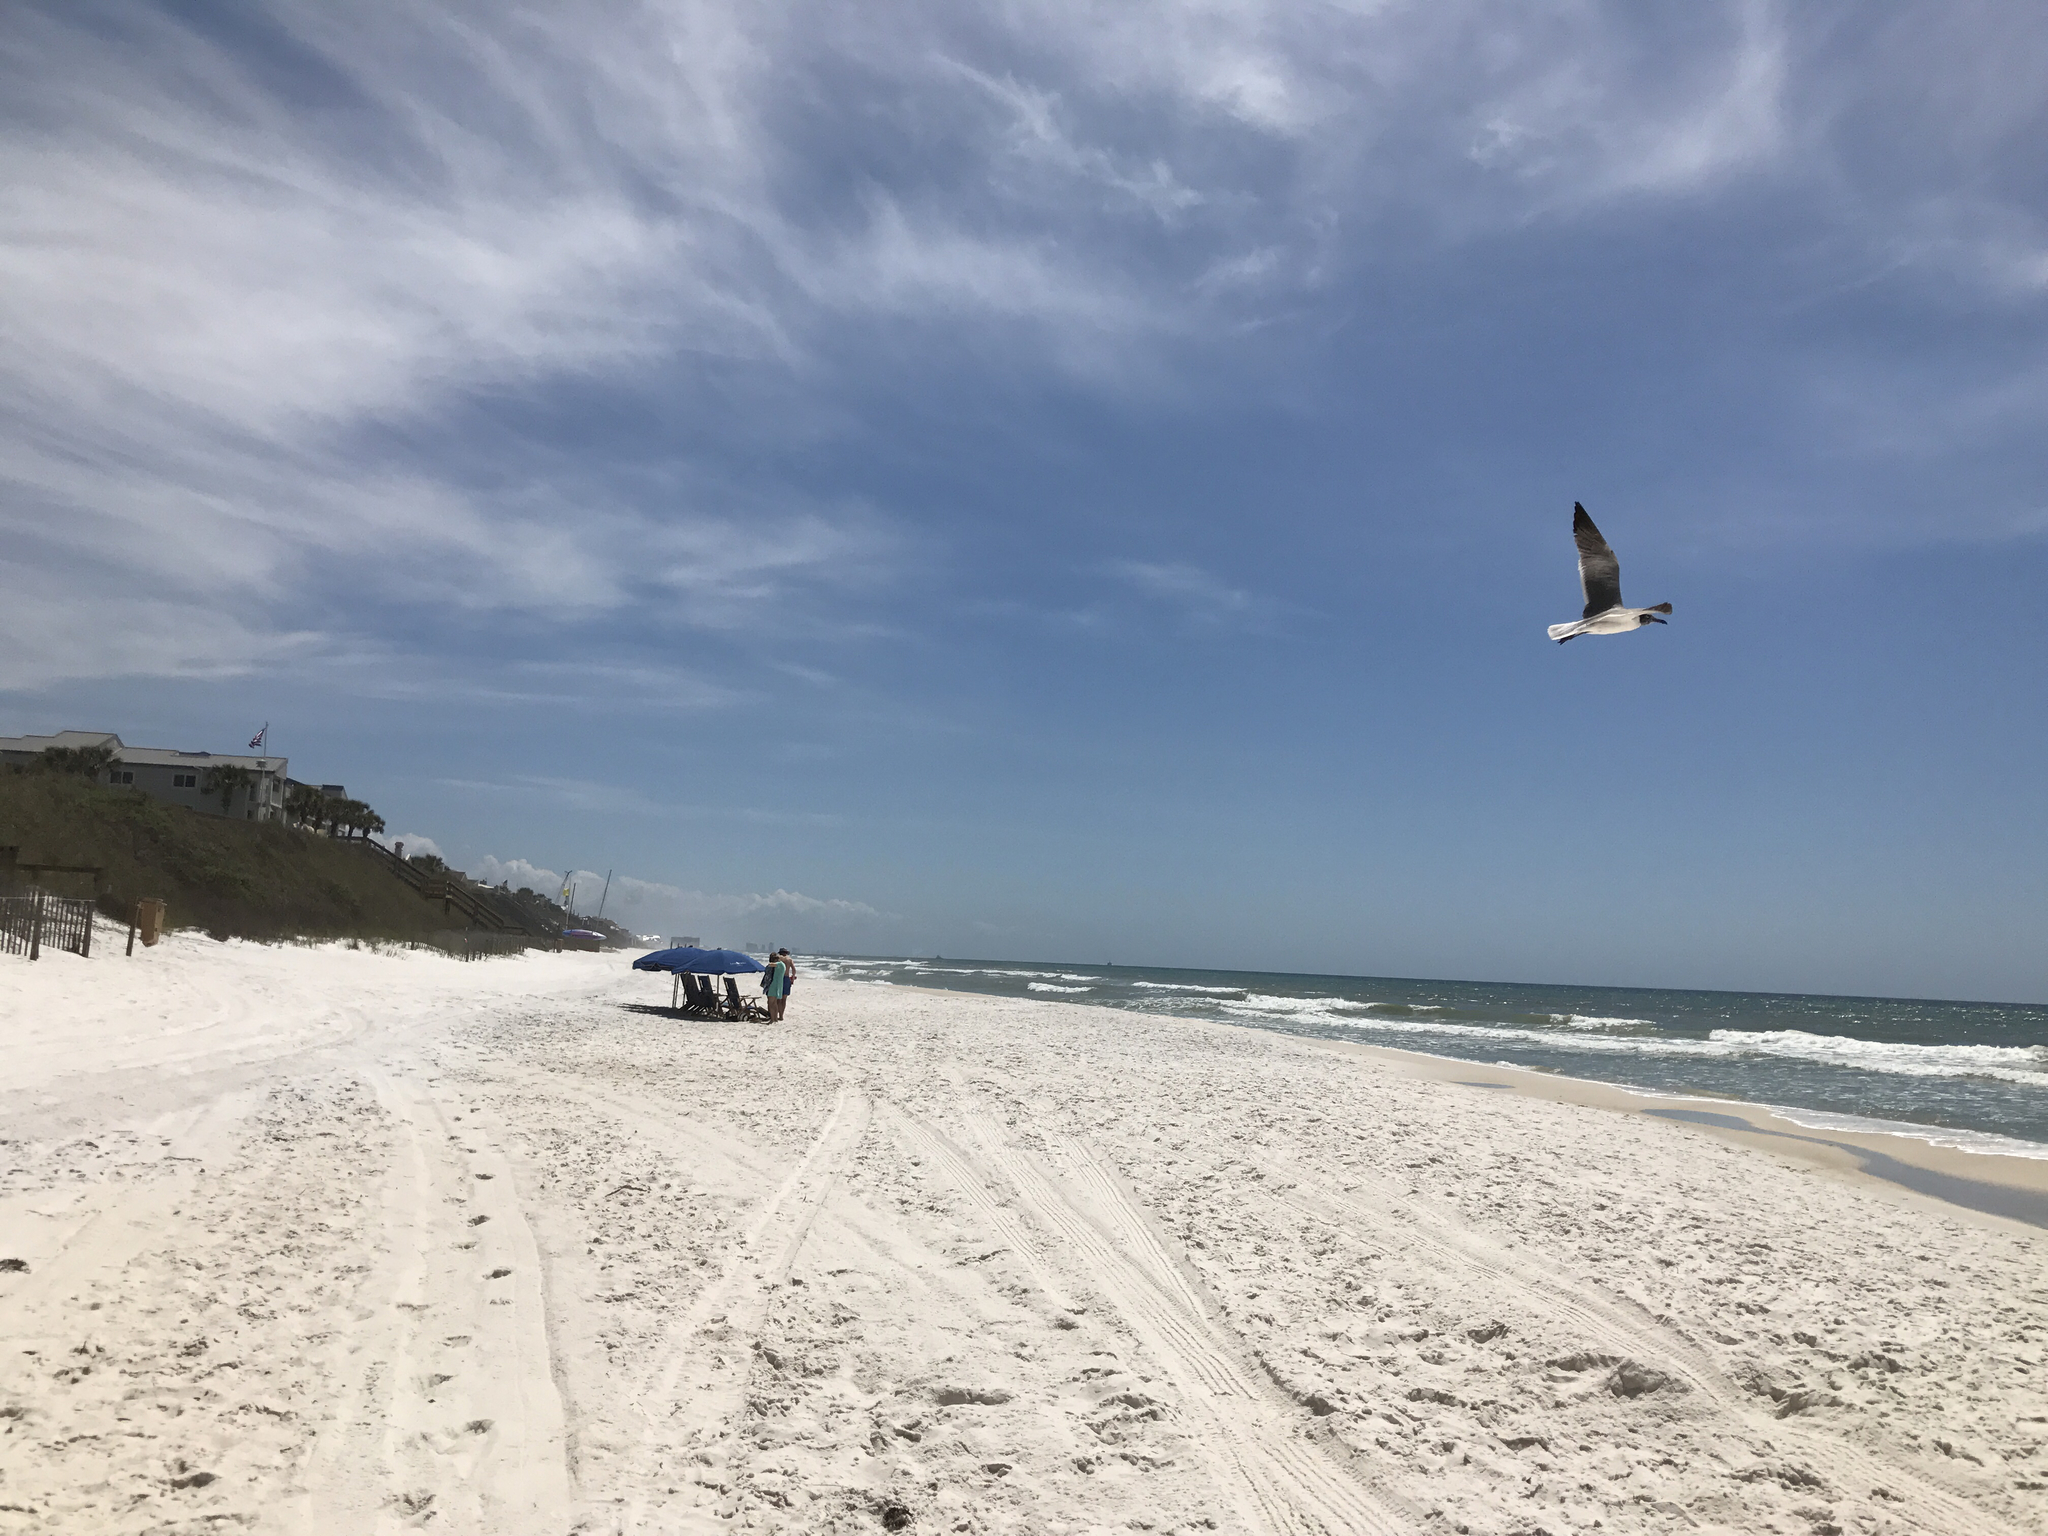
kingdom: Animalia
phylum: Chordata
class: Aves
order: Charadriiformes
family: Laridae
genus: Leucophaeus
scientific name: Leucophaeus atricilla
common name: Laughing gull
